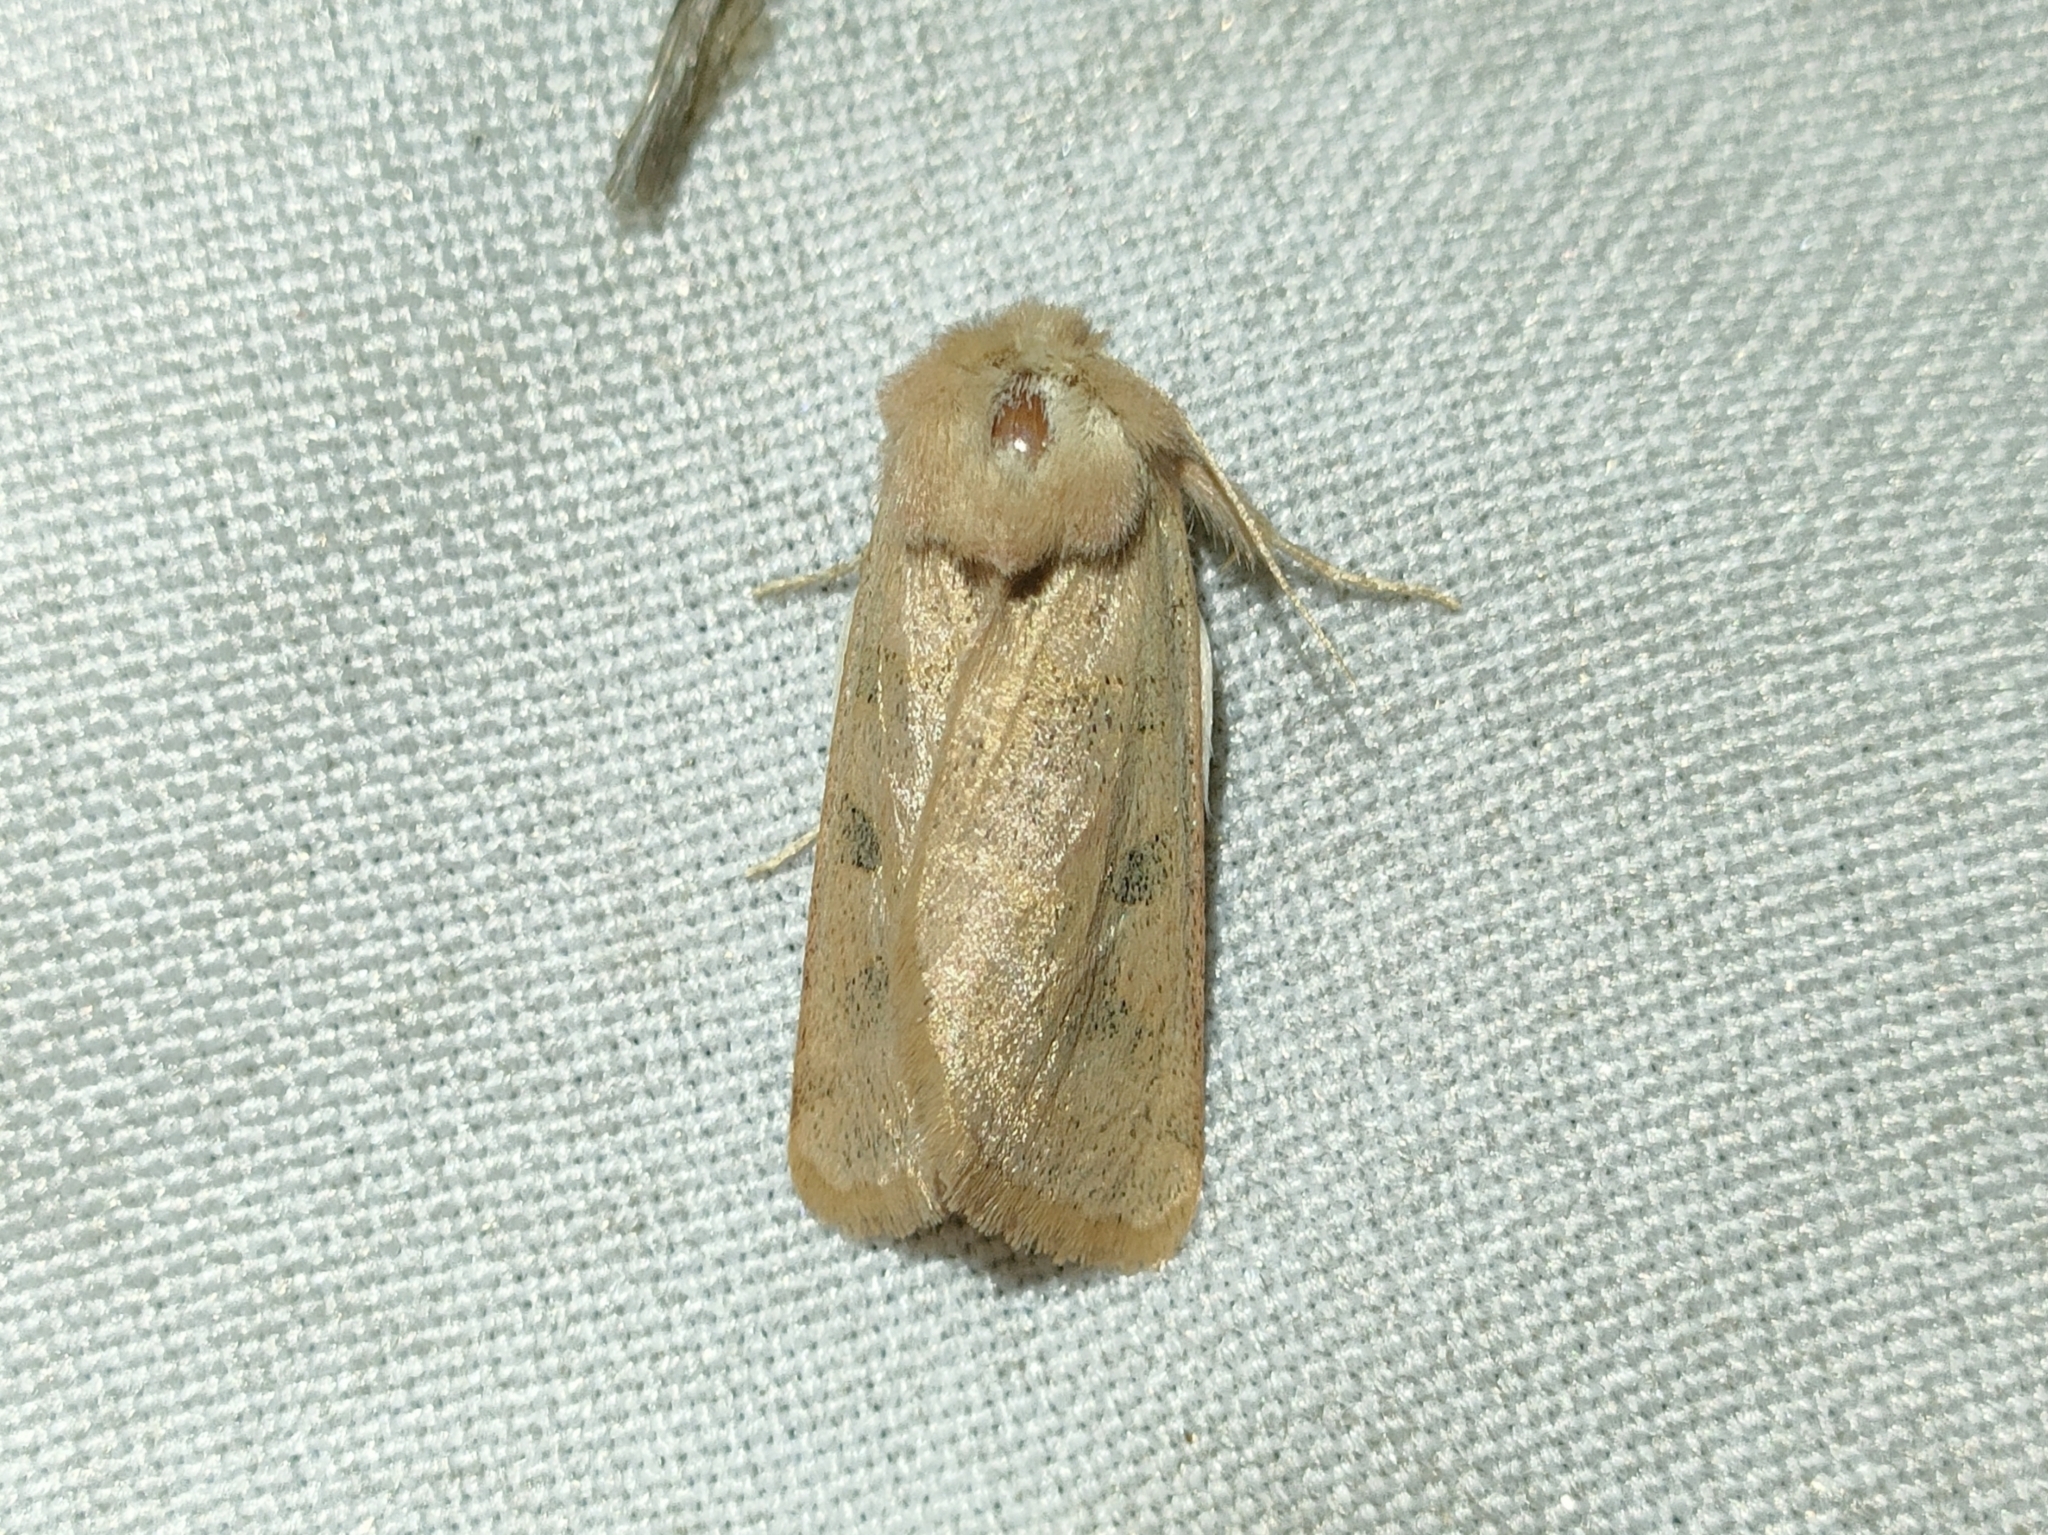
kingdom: Animalia
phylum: Arthropoda
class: Insecta
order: Lepidoptera
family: Noctuidae
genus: Episema
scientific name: Episema grueneri
